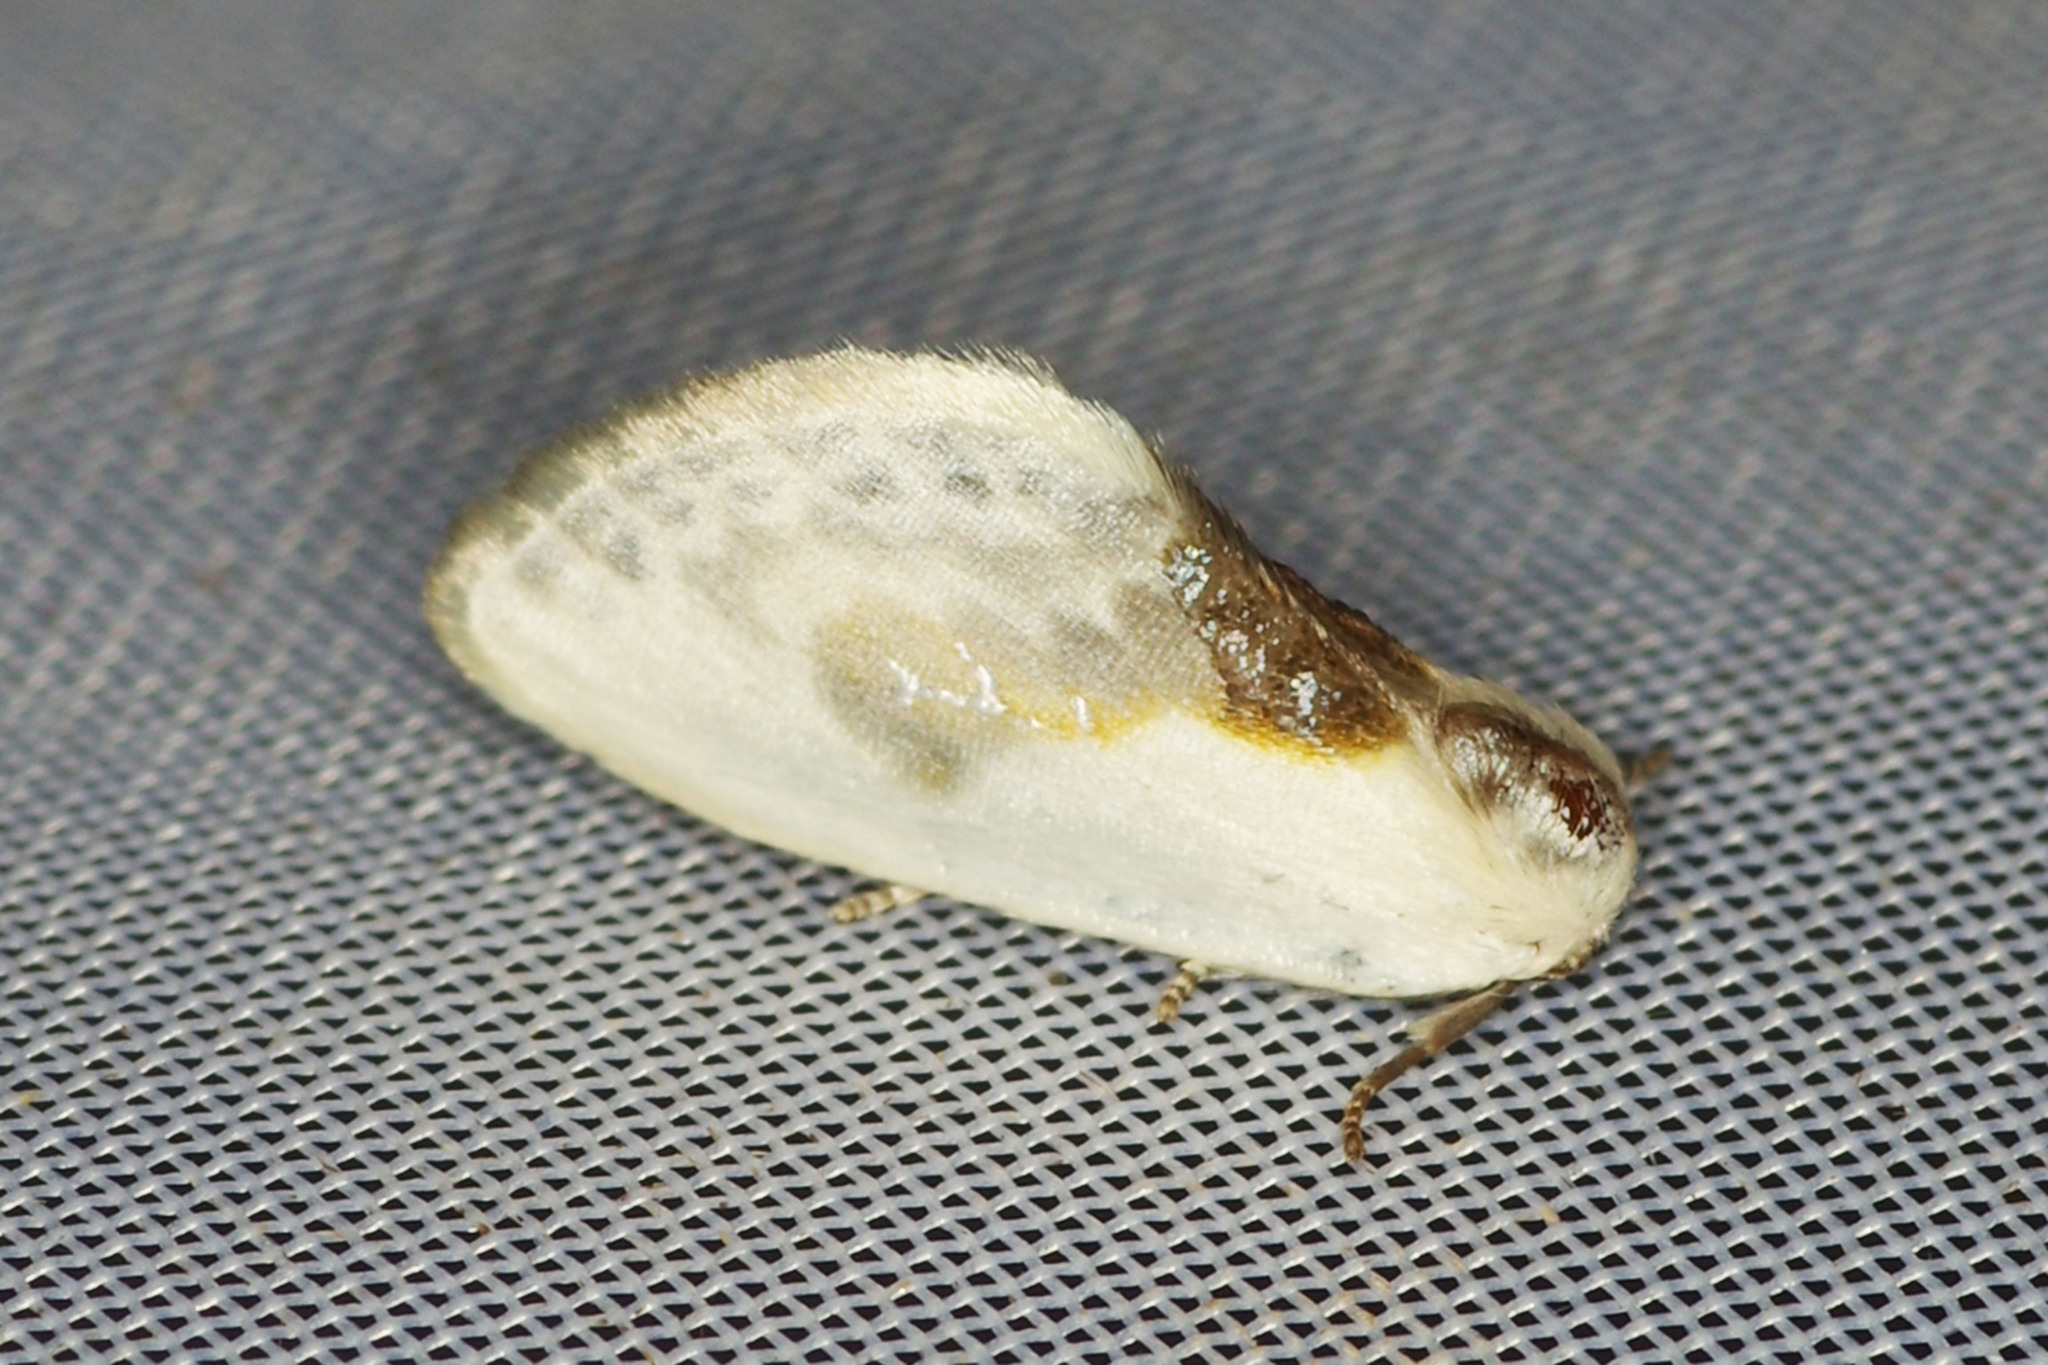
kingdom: Animalia
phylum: Arthropoda
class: Insecta
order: Lepidoptera
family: Drepanidae
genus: Cilix
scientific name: Cilix glaucata
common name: Chinese character
